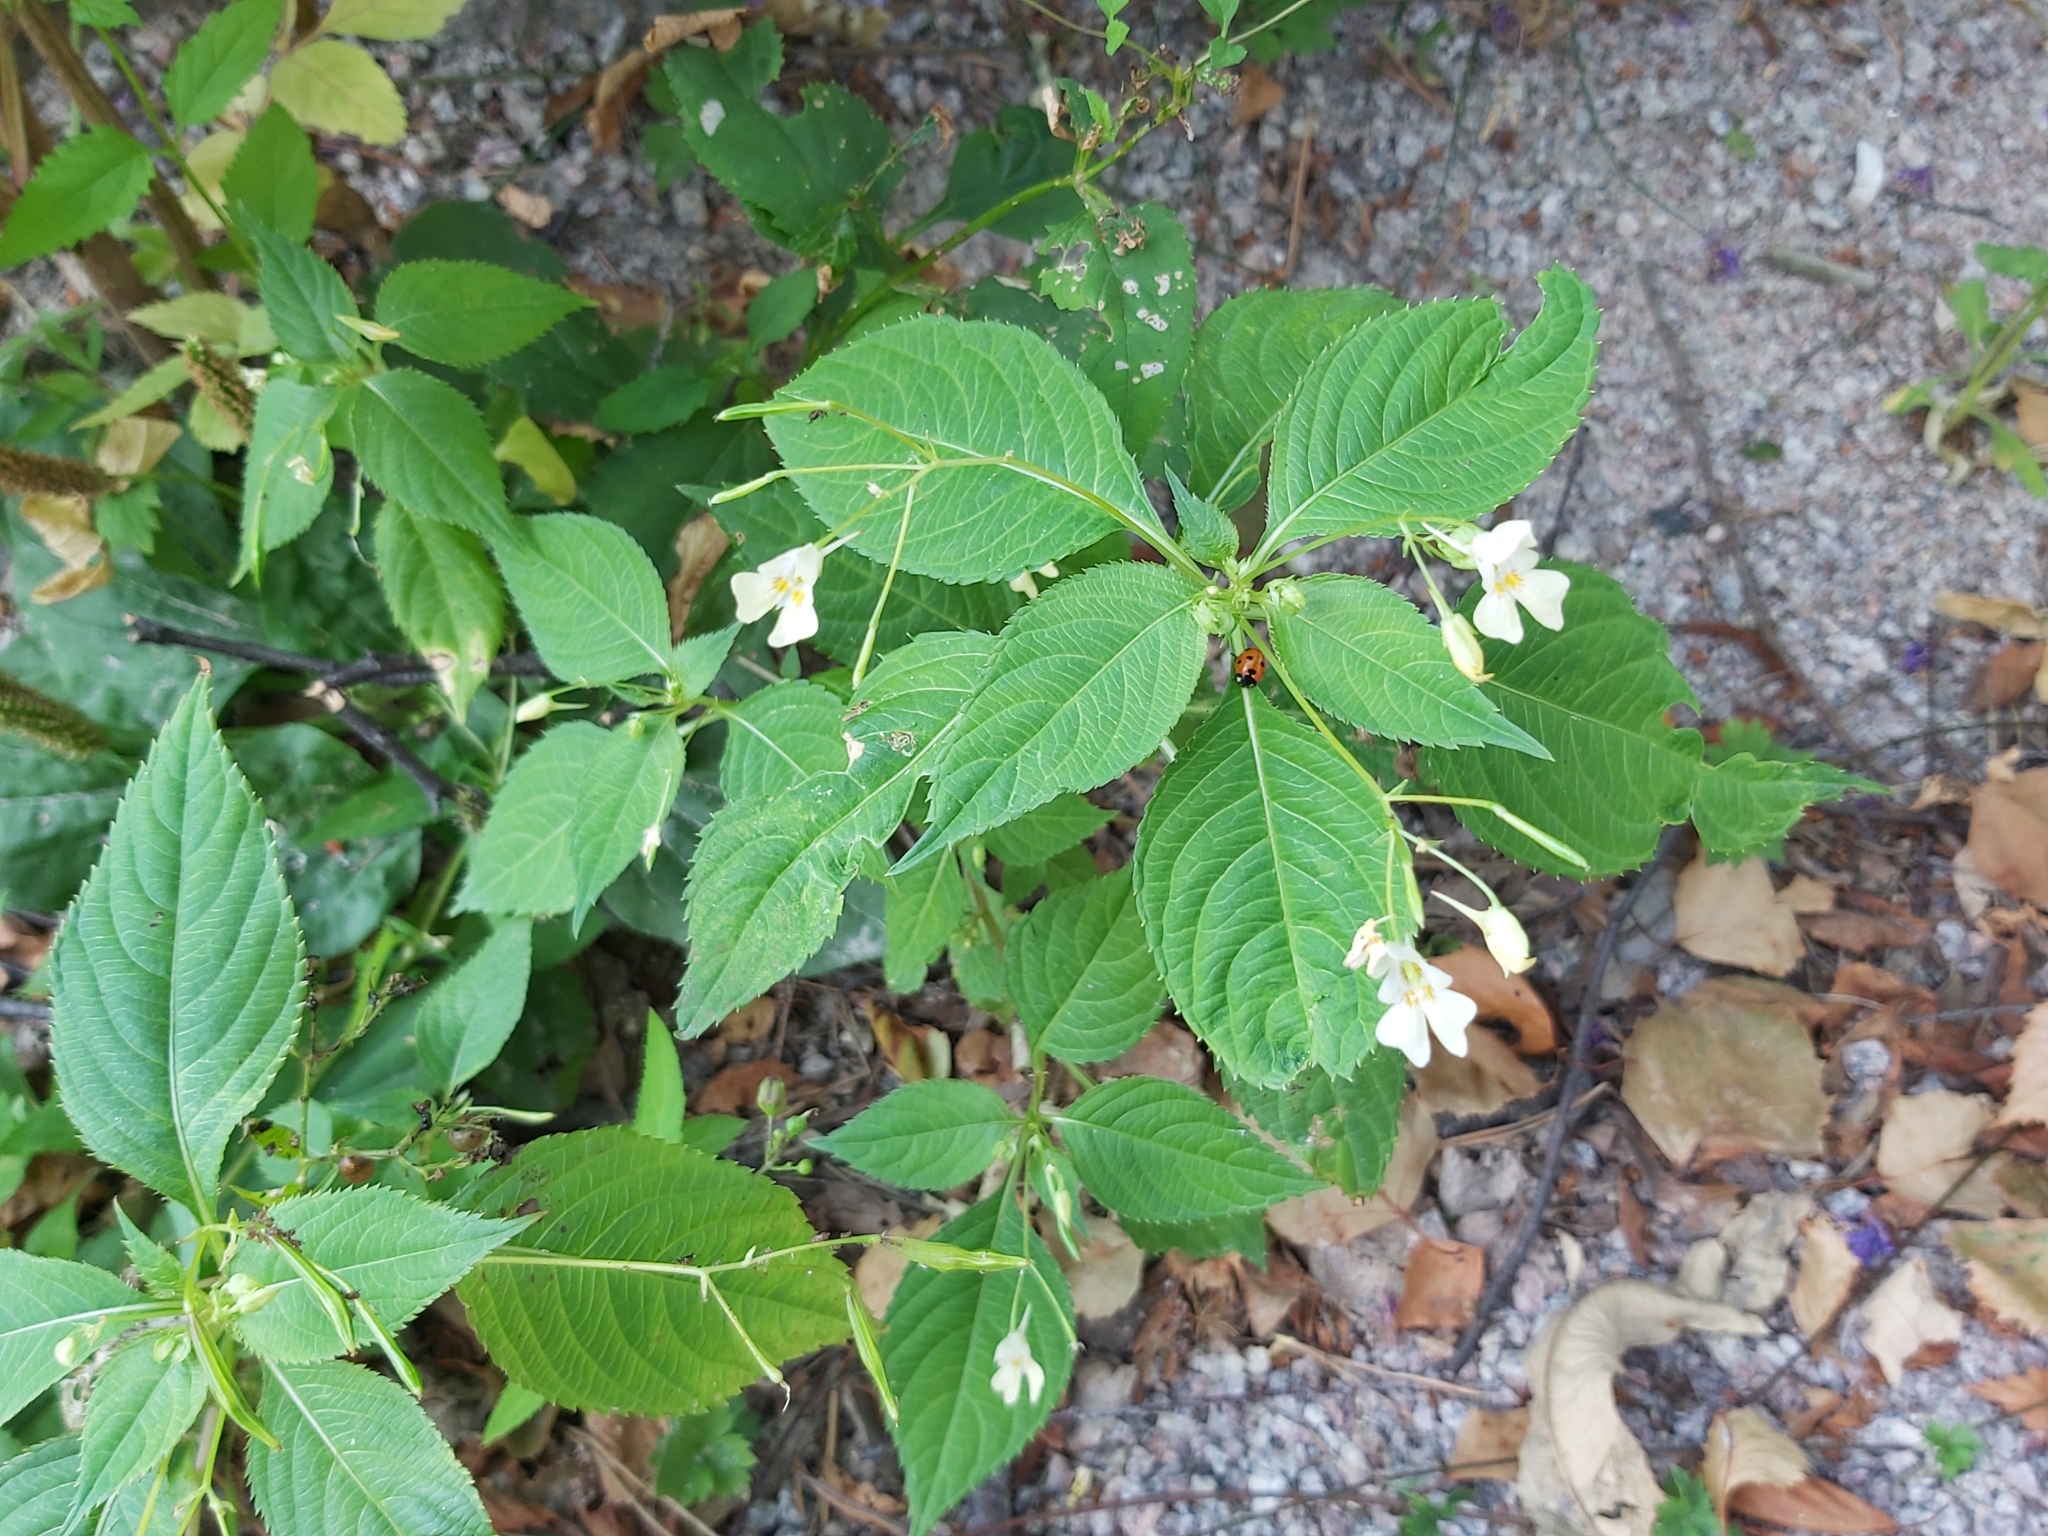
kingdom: Plantae
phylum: Tracheophyta
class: Magnoliopsida
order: Ericales
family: Balsaminaceae
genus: Impatiens
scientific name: Impatiens parviflora
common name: Small balsam
